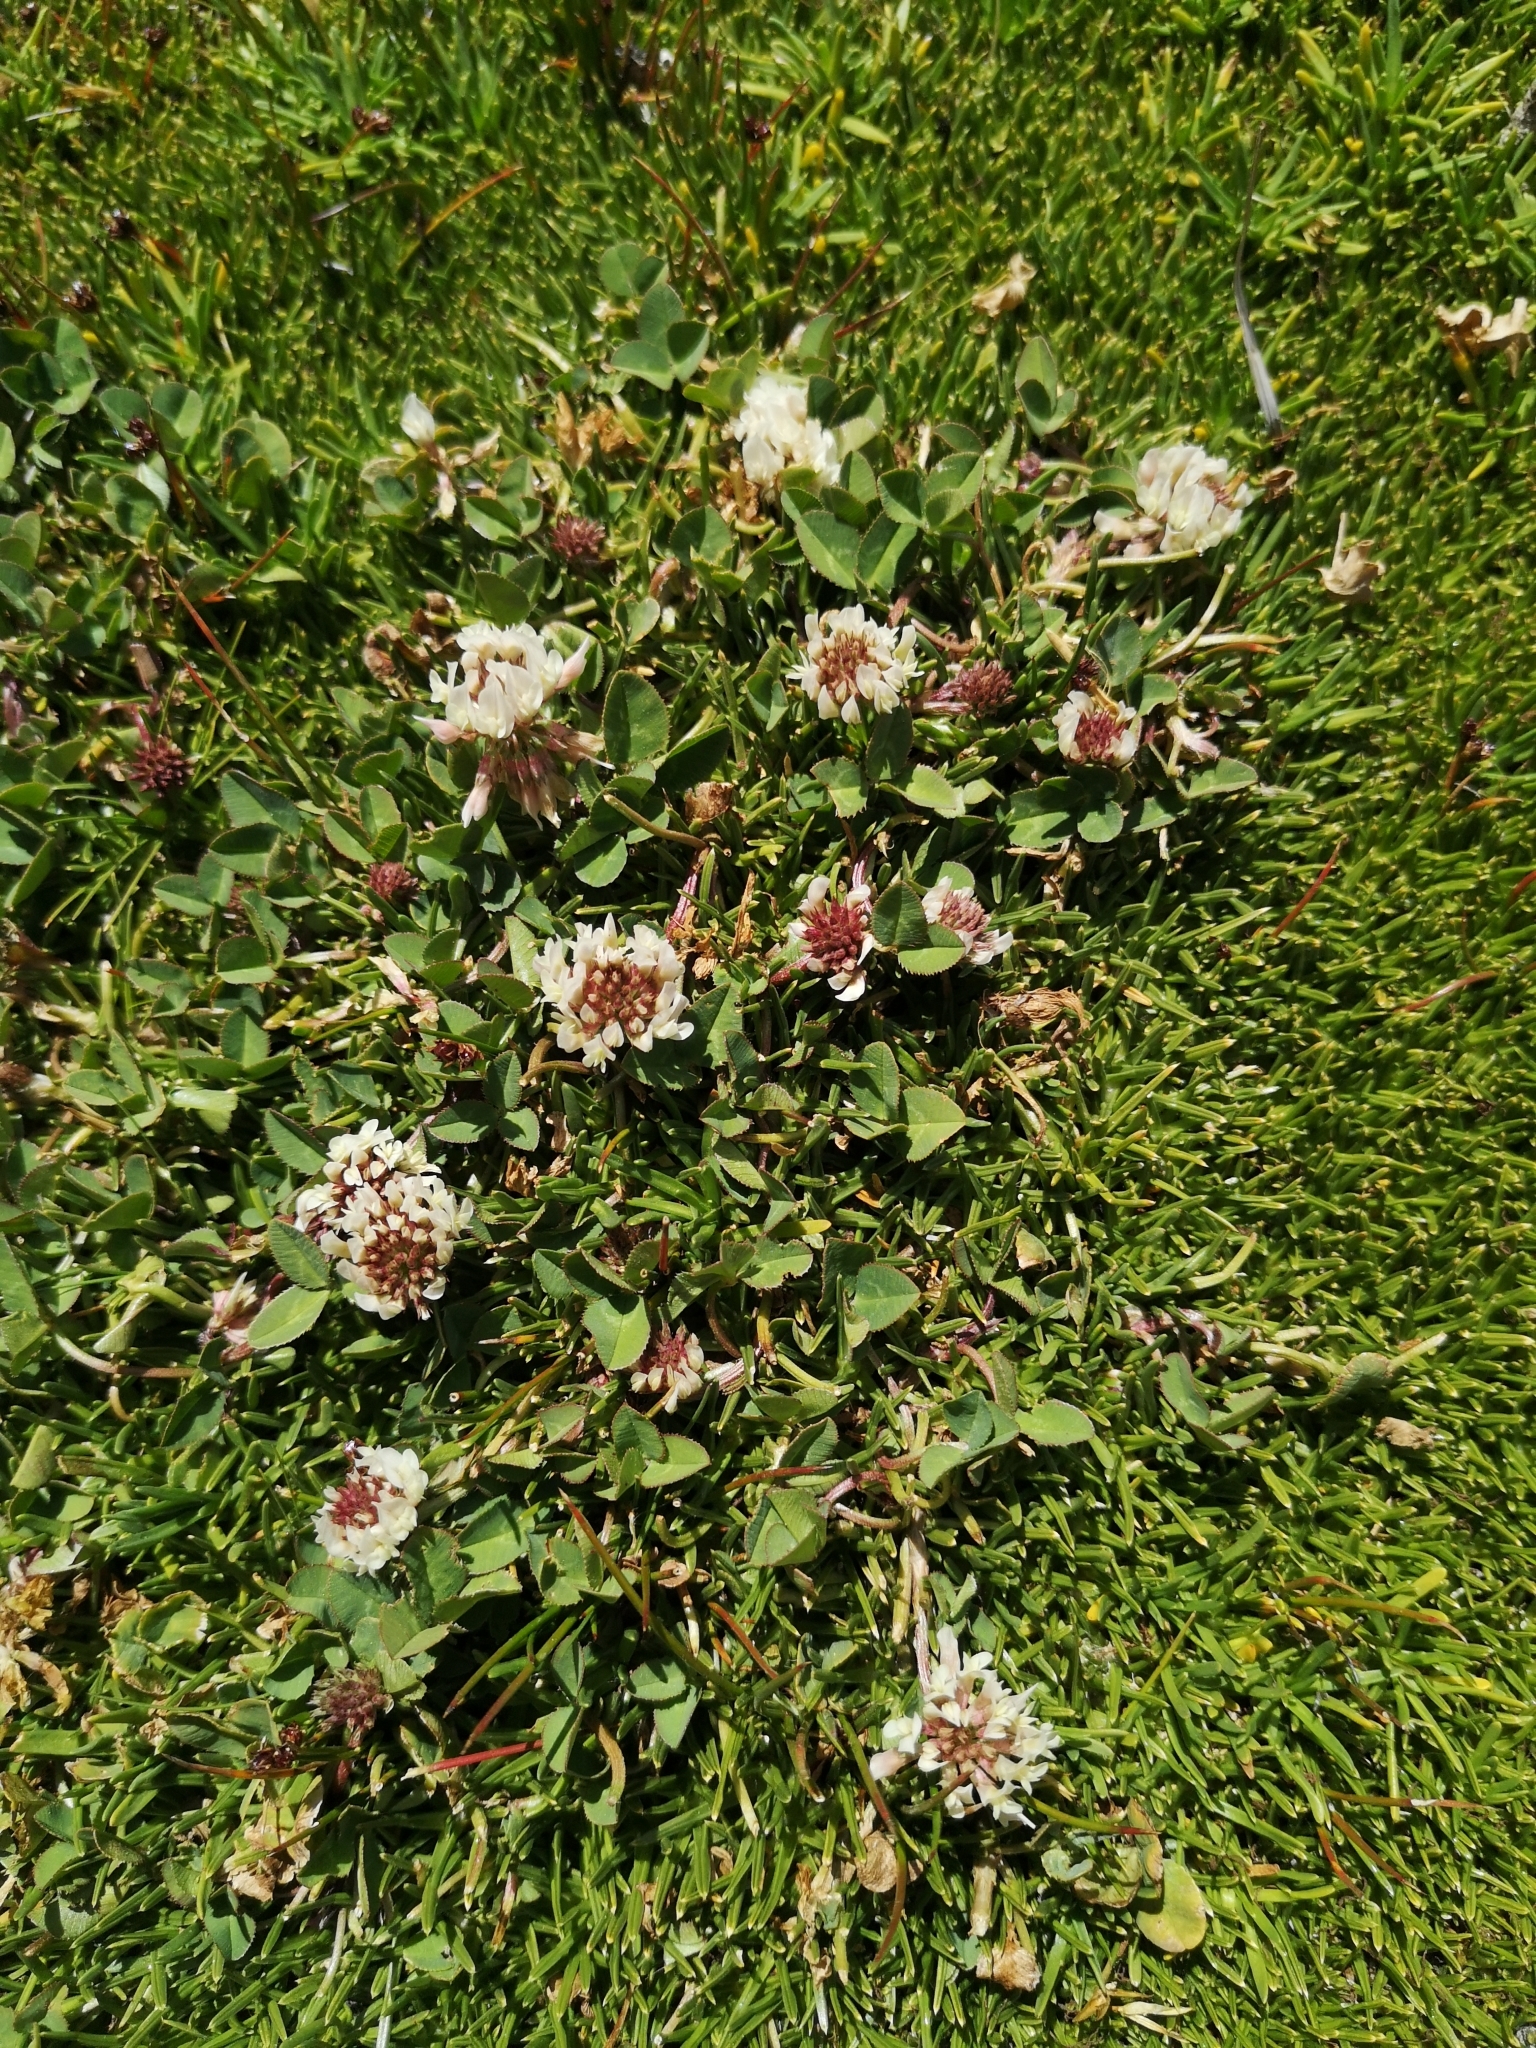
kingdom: Plantae
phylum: Tracheophyta
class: Magnoliopsida
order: Fabales
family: Fabaceae
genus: Trifolium
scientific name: Trifolium repens
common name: White clover
